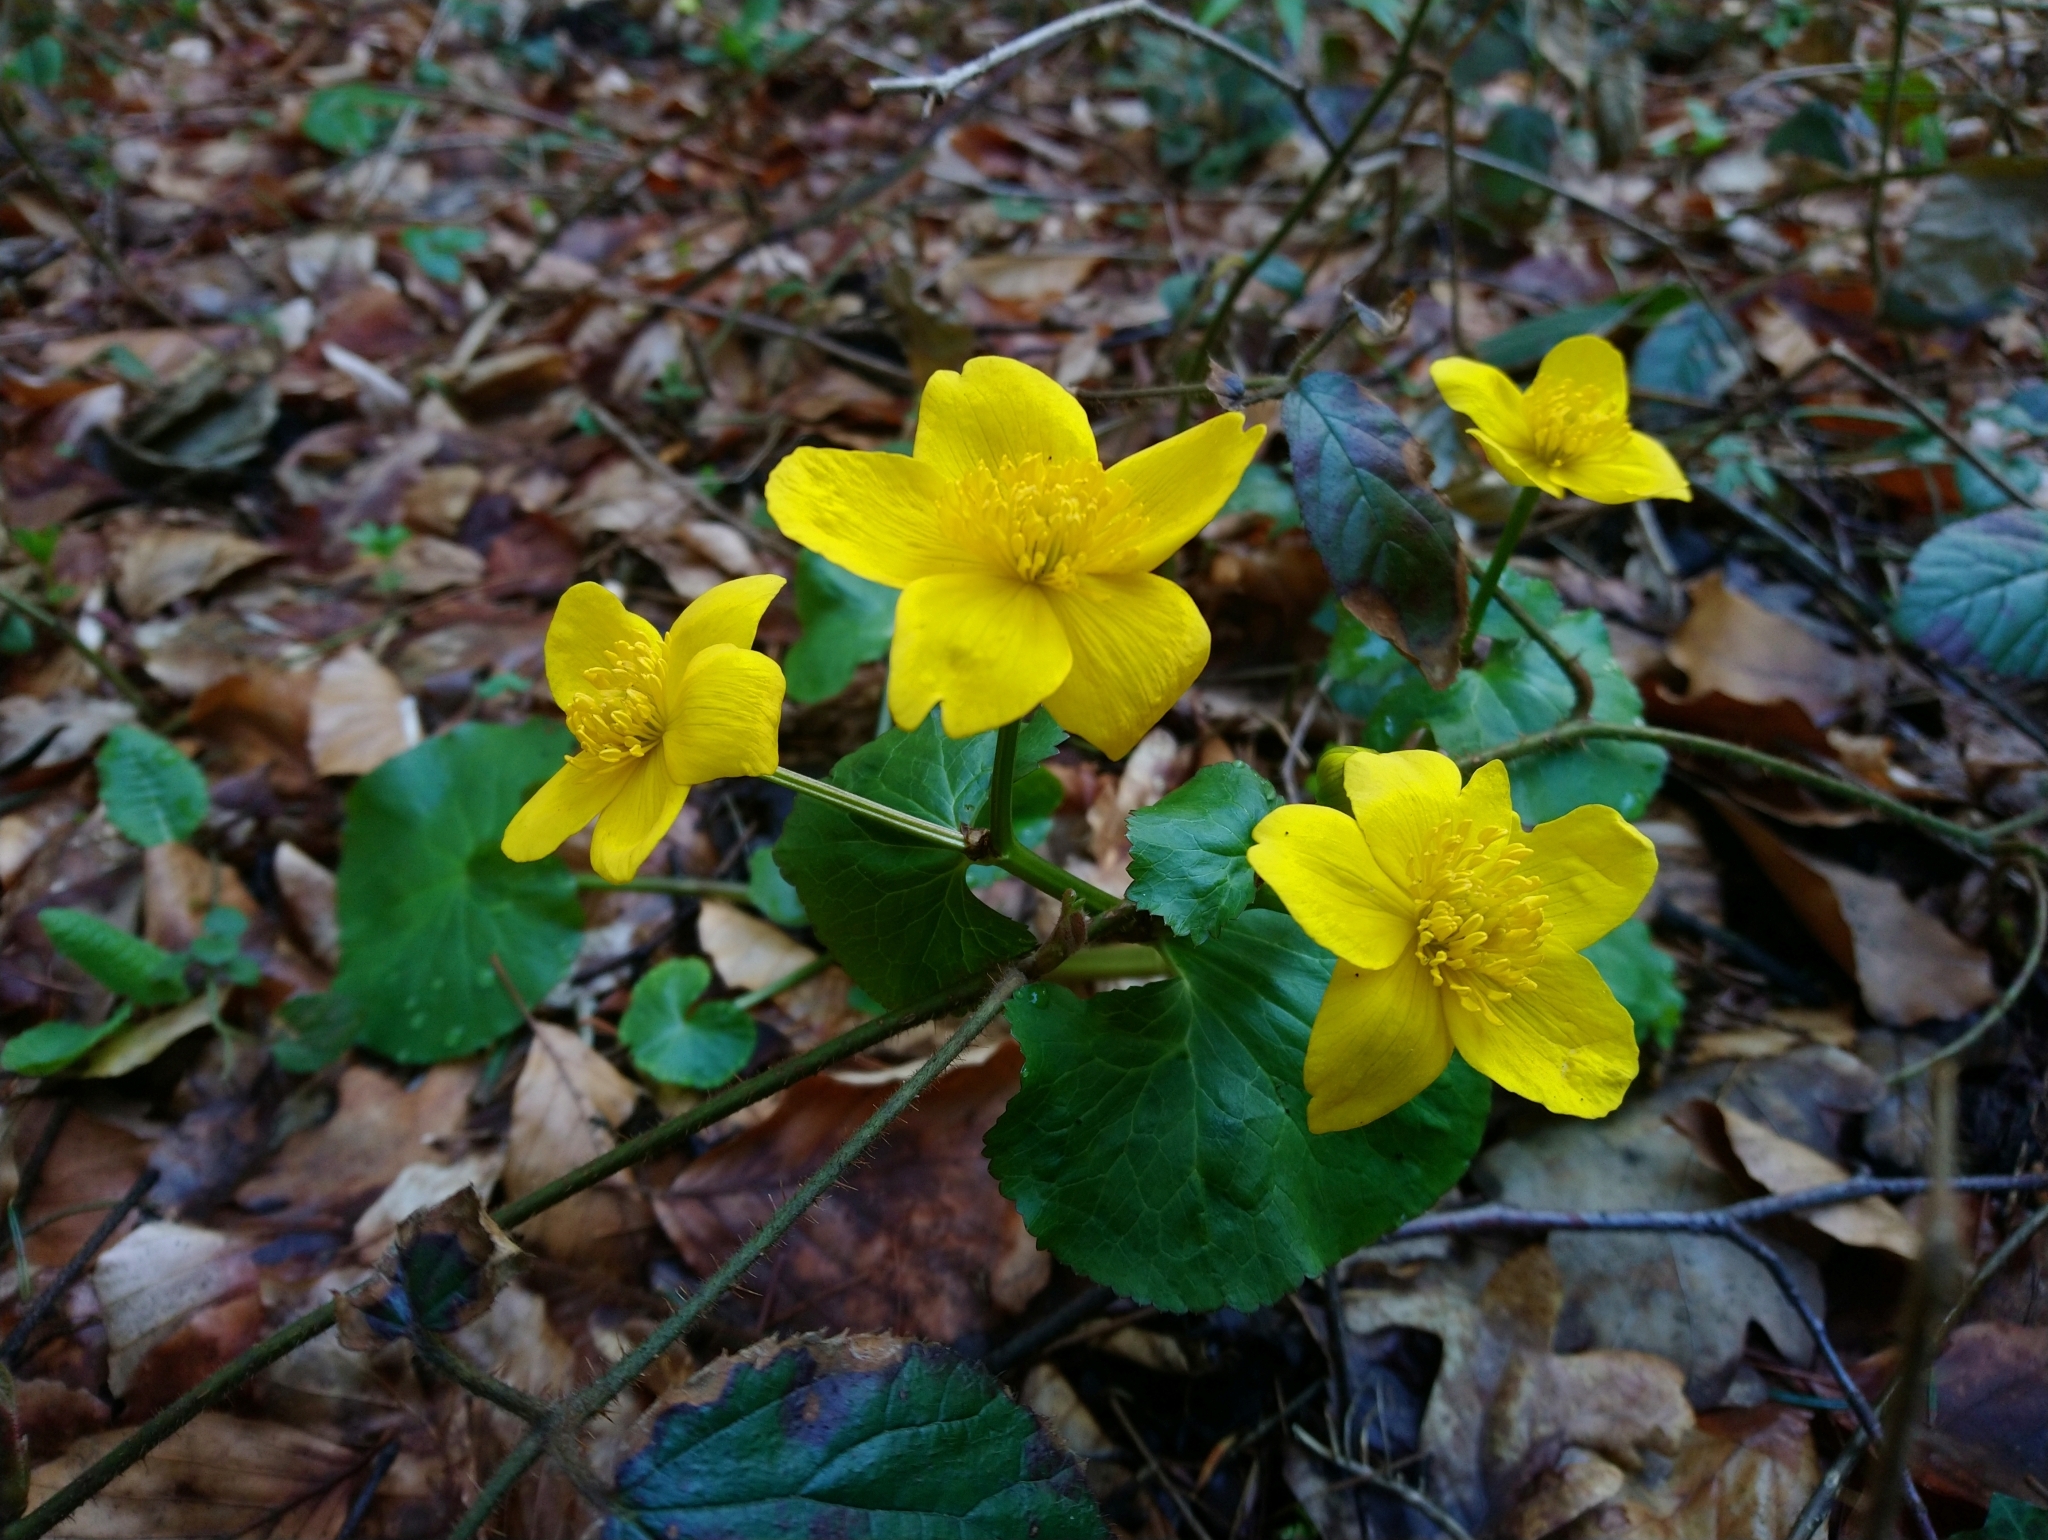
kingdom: Plantae
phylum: Tracheophyta
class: Magnoliopsida
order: Ranunculales
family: Ranunculaceae
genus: Caltha
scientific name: Caltha palustris
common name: Marsh marigold
